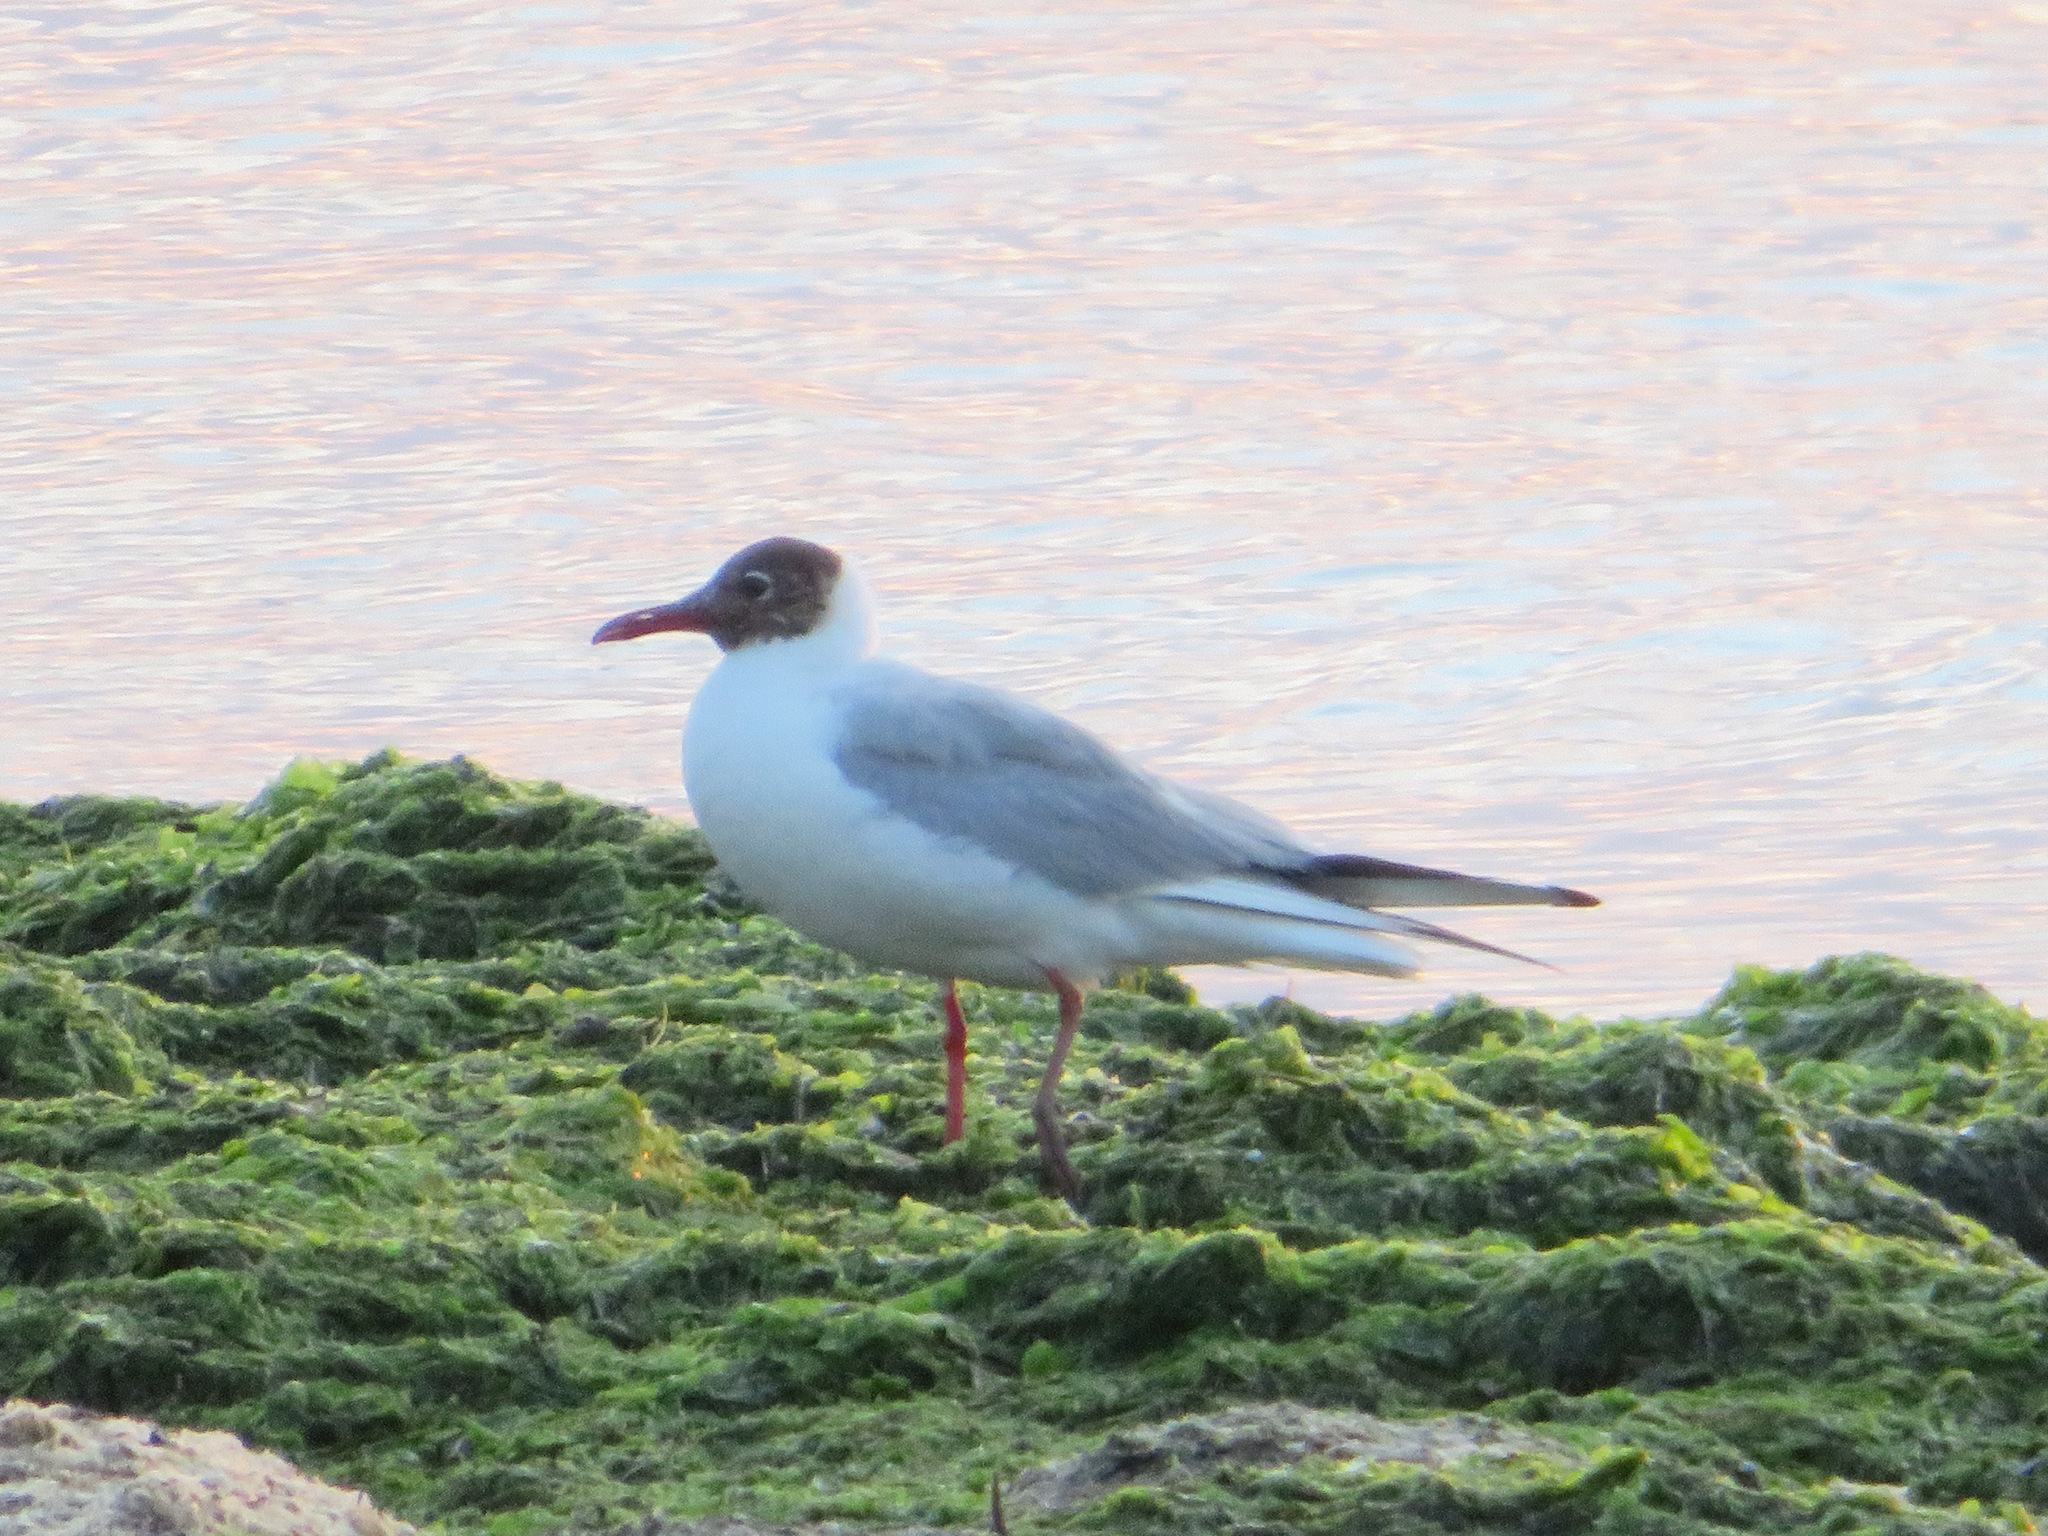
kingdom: Animalia
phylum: Chordata
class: Aves
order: Charadriiformes
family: Laridae
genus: Chroicocephalus
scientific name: Chroicocephalus ridibundus
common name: Black-headed gull
